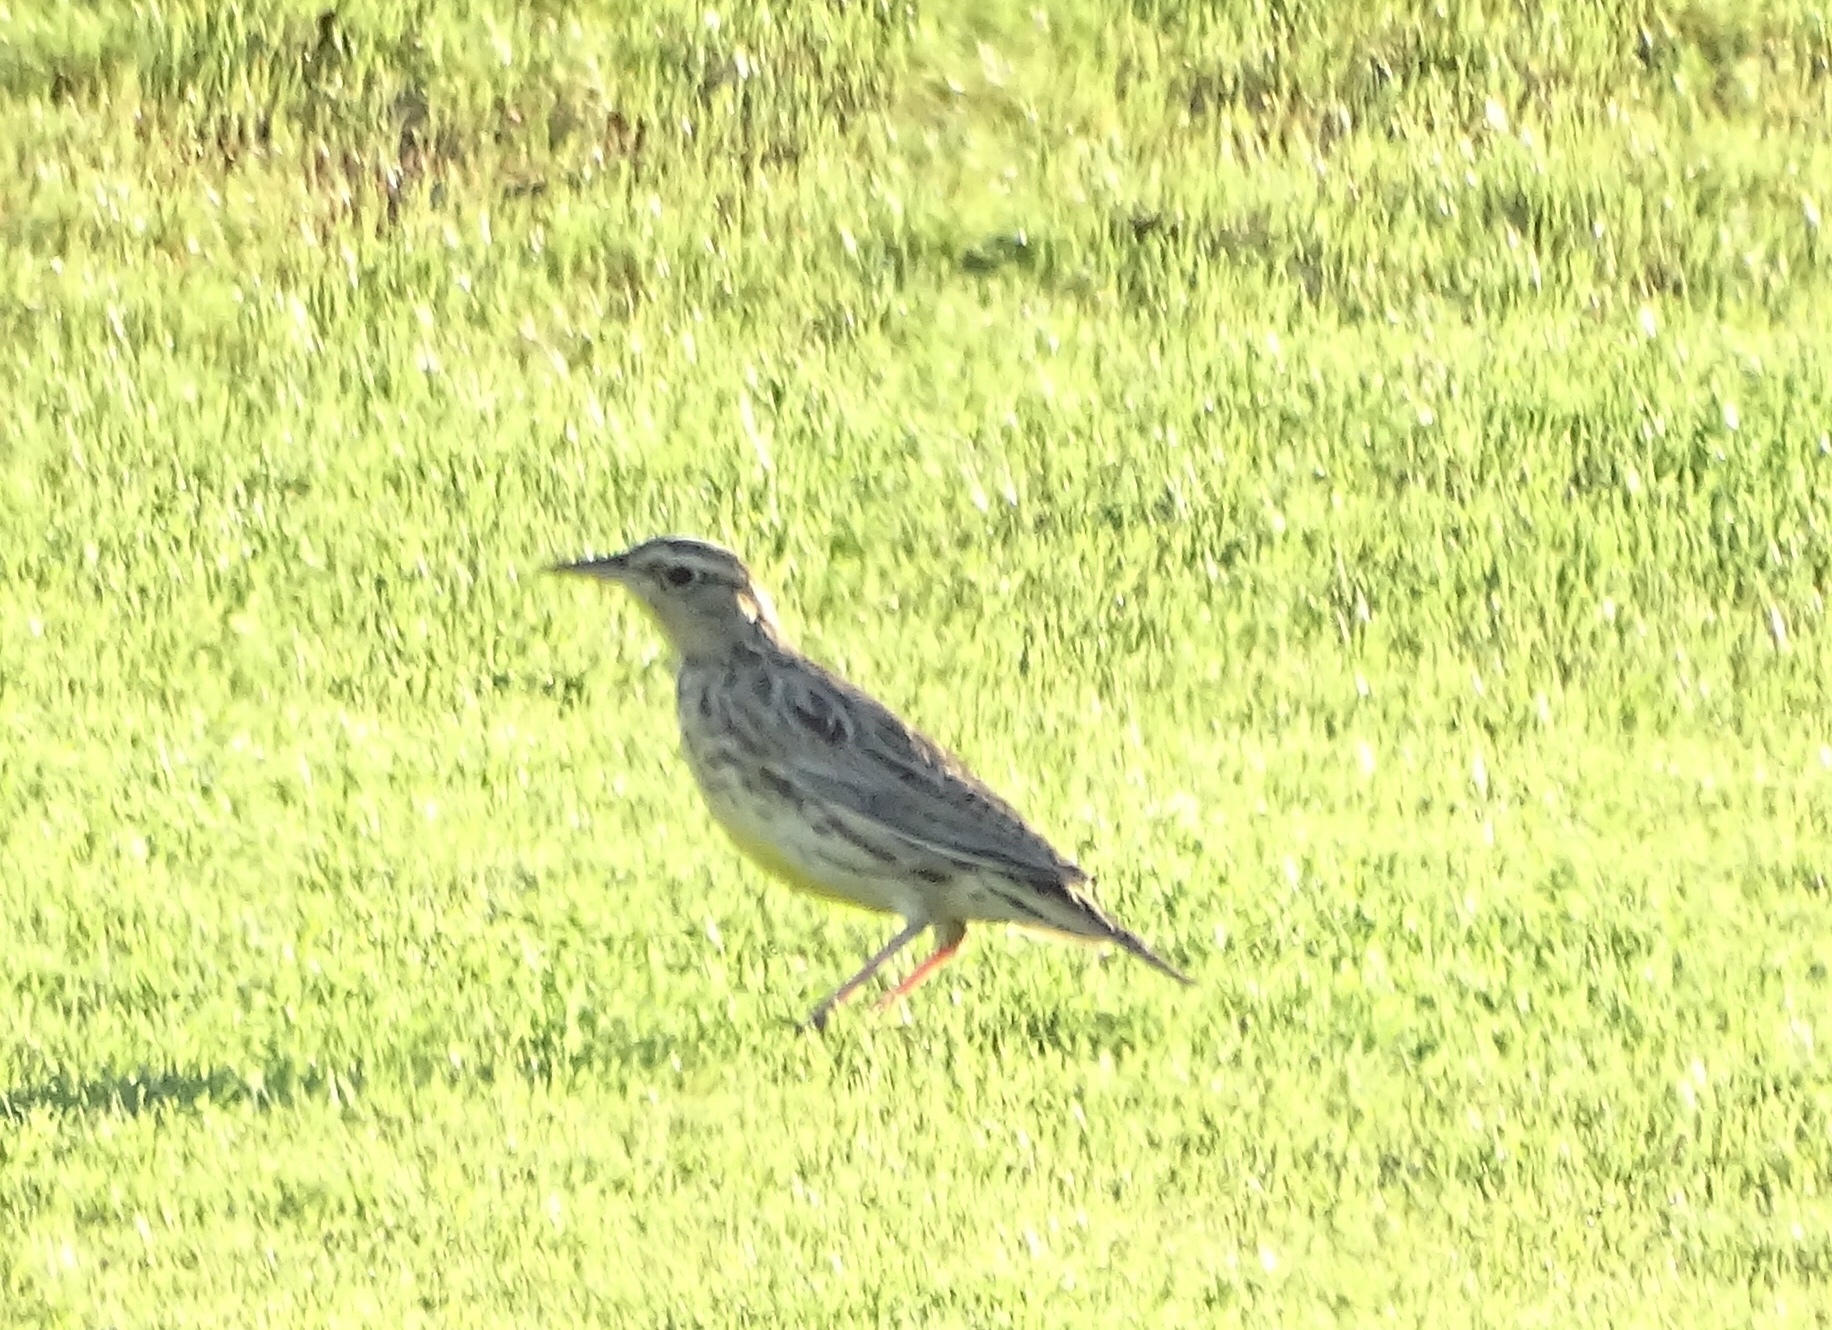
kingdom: Animalia
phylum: Chordata
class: Aves
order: Passeriformes
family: Icteridae
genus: Sturnella
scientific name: Sturnella neglecta
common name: Western meadowlark
